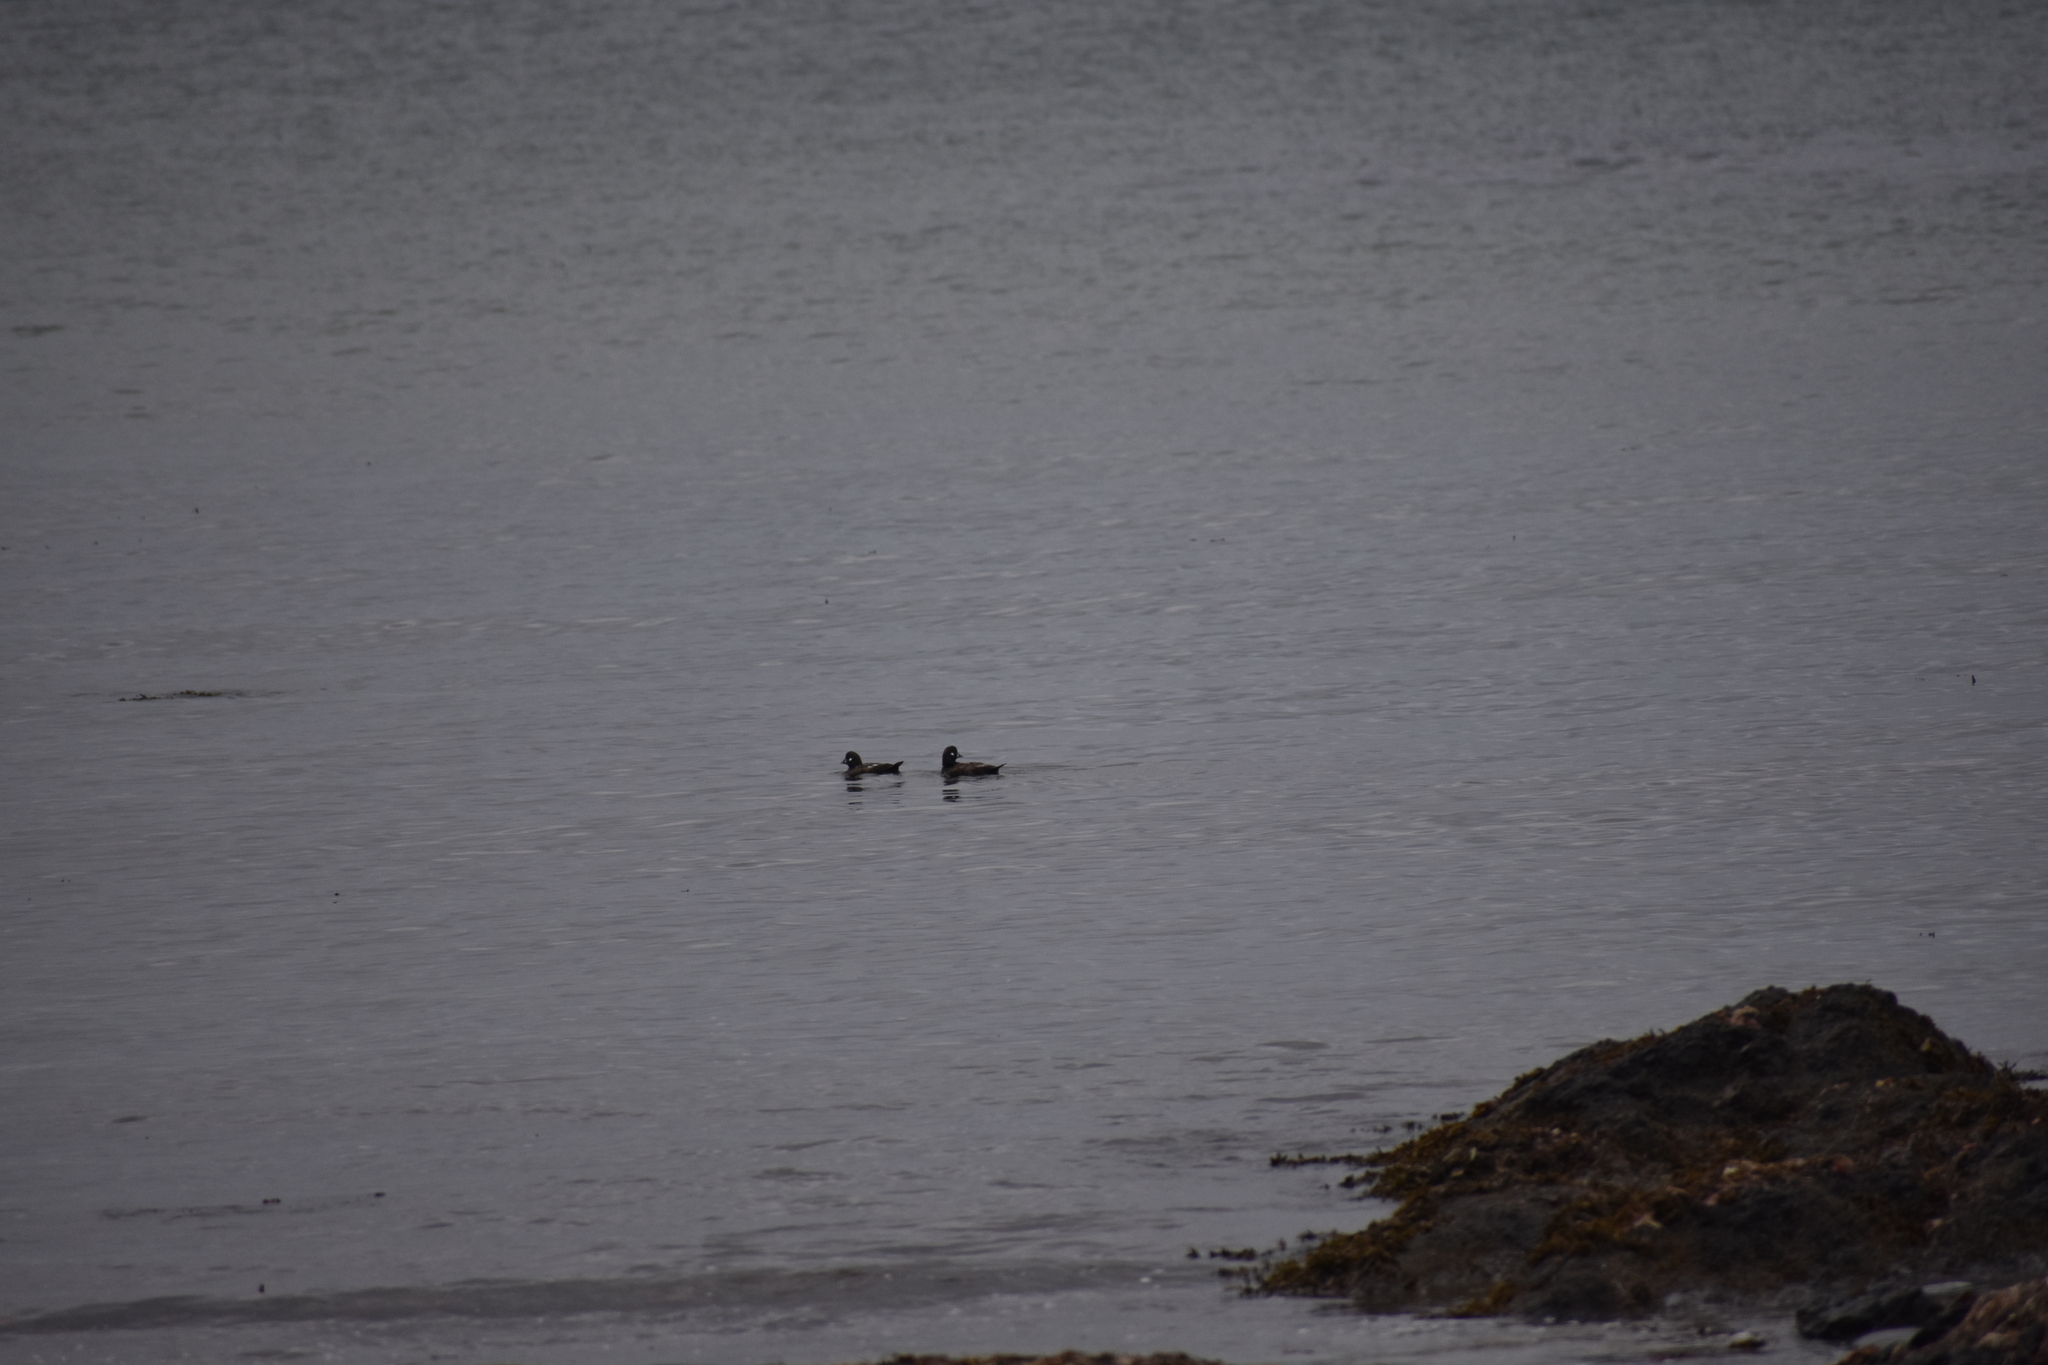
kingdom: Animalia
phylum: Chordata
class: Aves
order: Anseriformes
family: Anatidae
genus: Histrionicus
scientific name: Histrionicus histrionicus
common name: Harlequin duck
